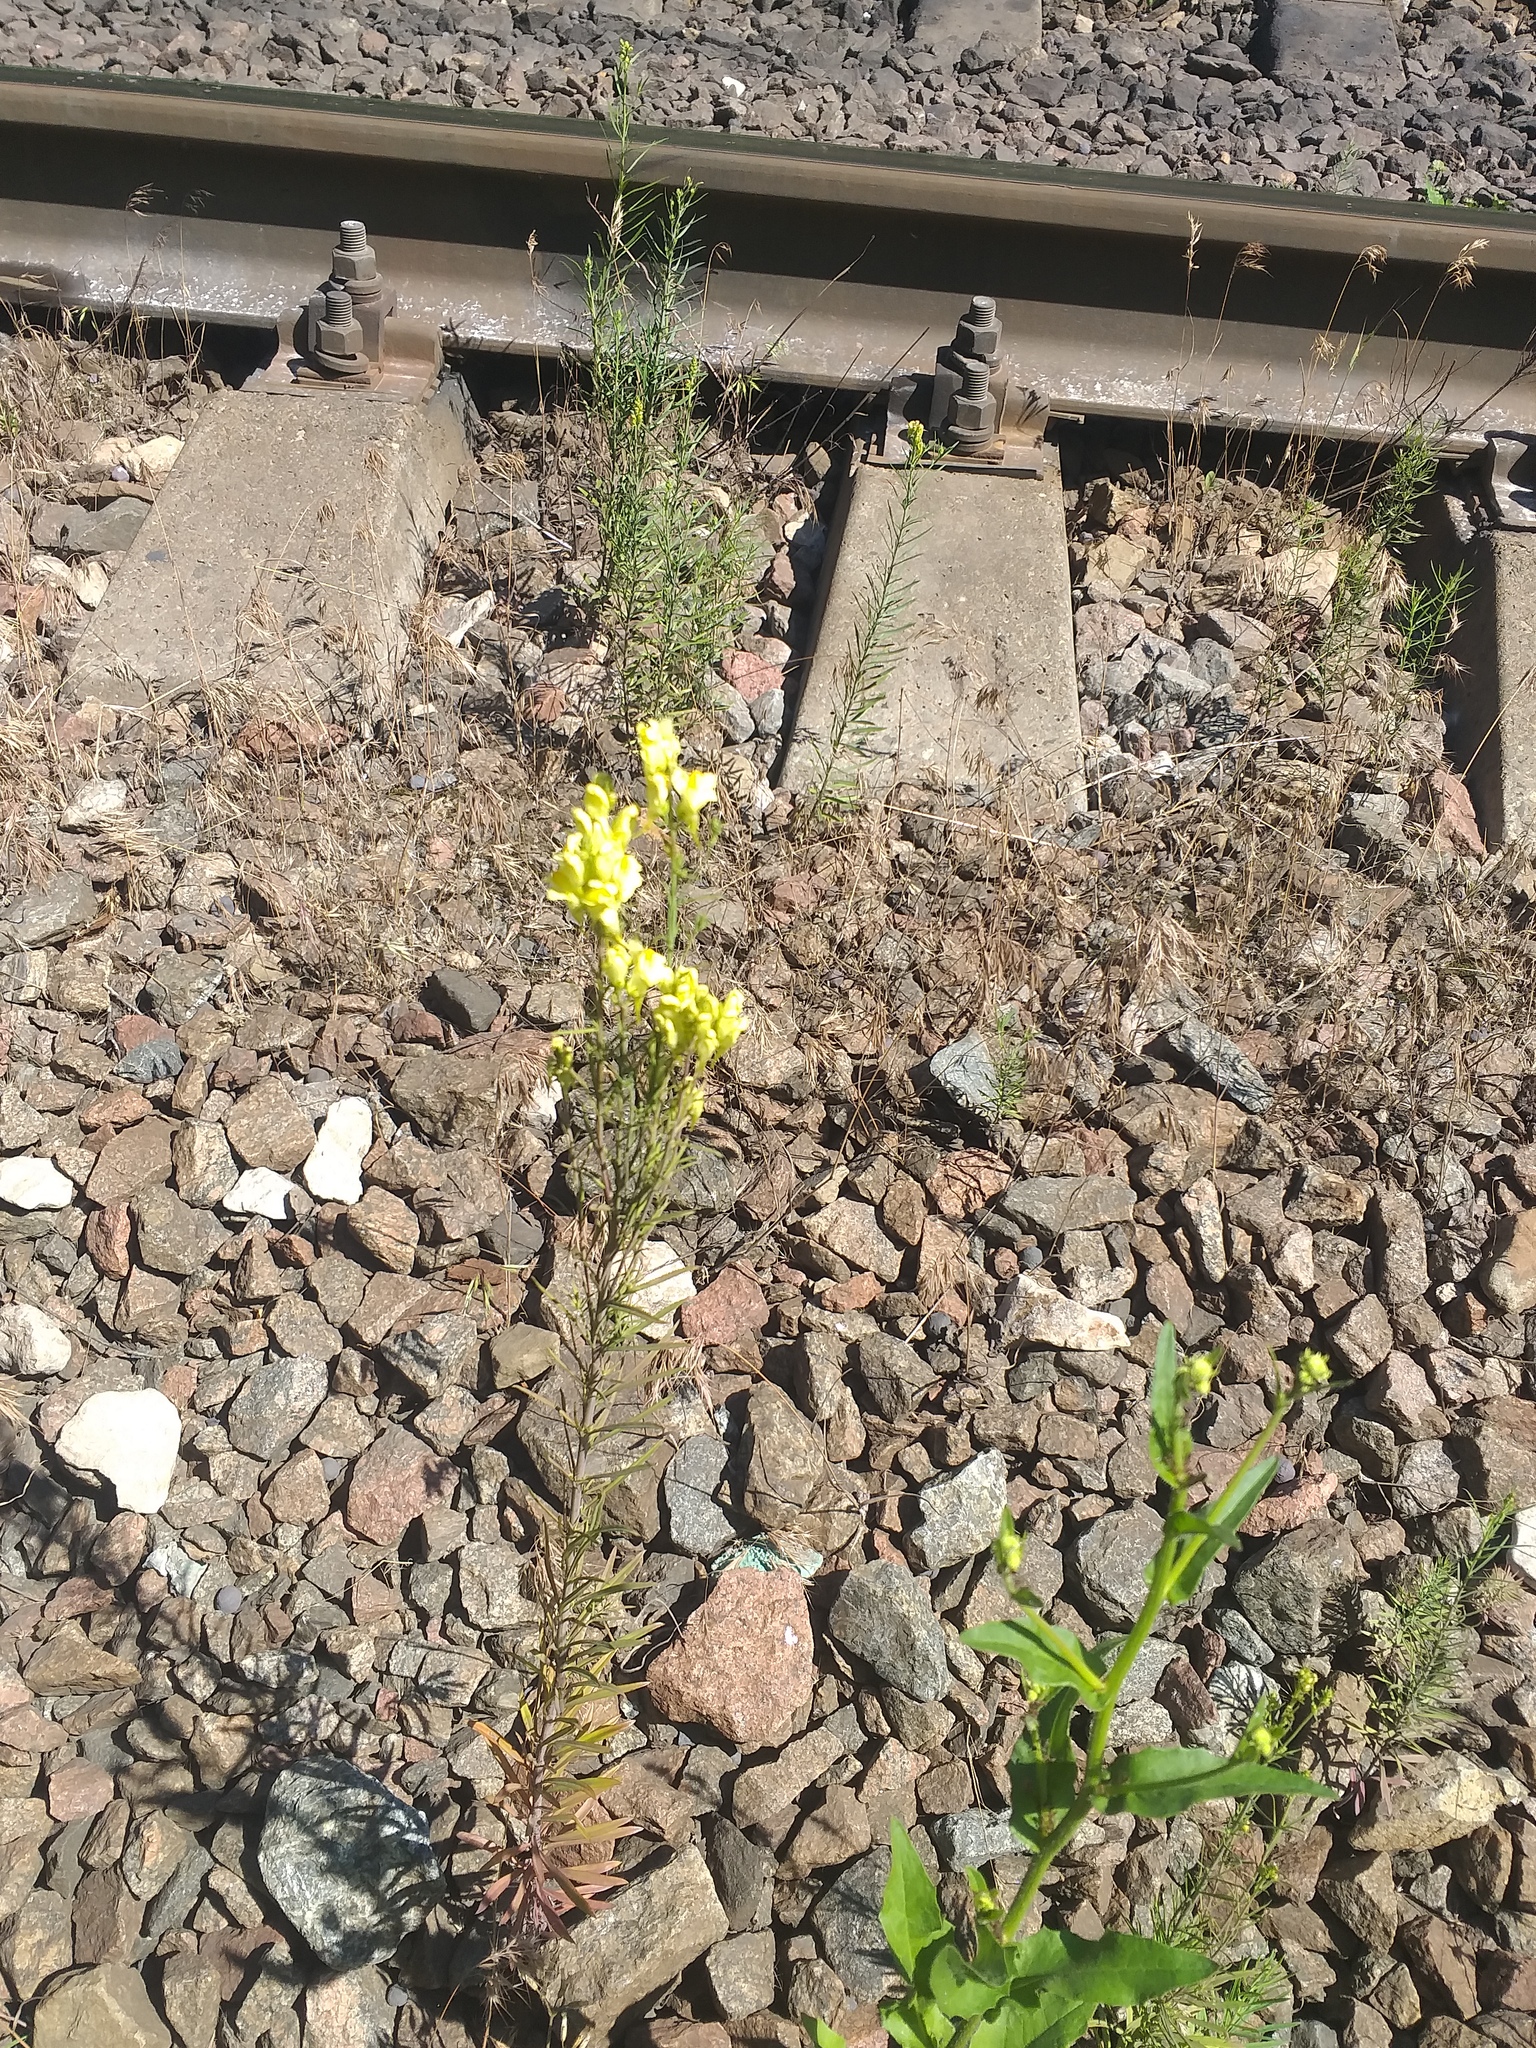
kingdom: Plantae
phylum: Tracheophyta
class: Magnoliopsida
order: Lamiales
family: Plantaginaceae
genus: Linaria
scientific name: Linaria vulgaris
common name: Butter and eggs
